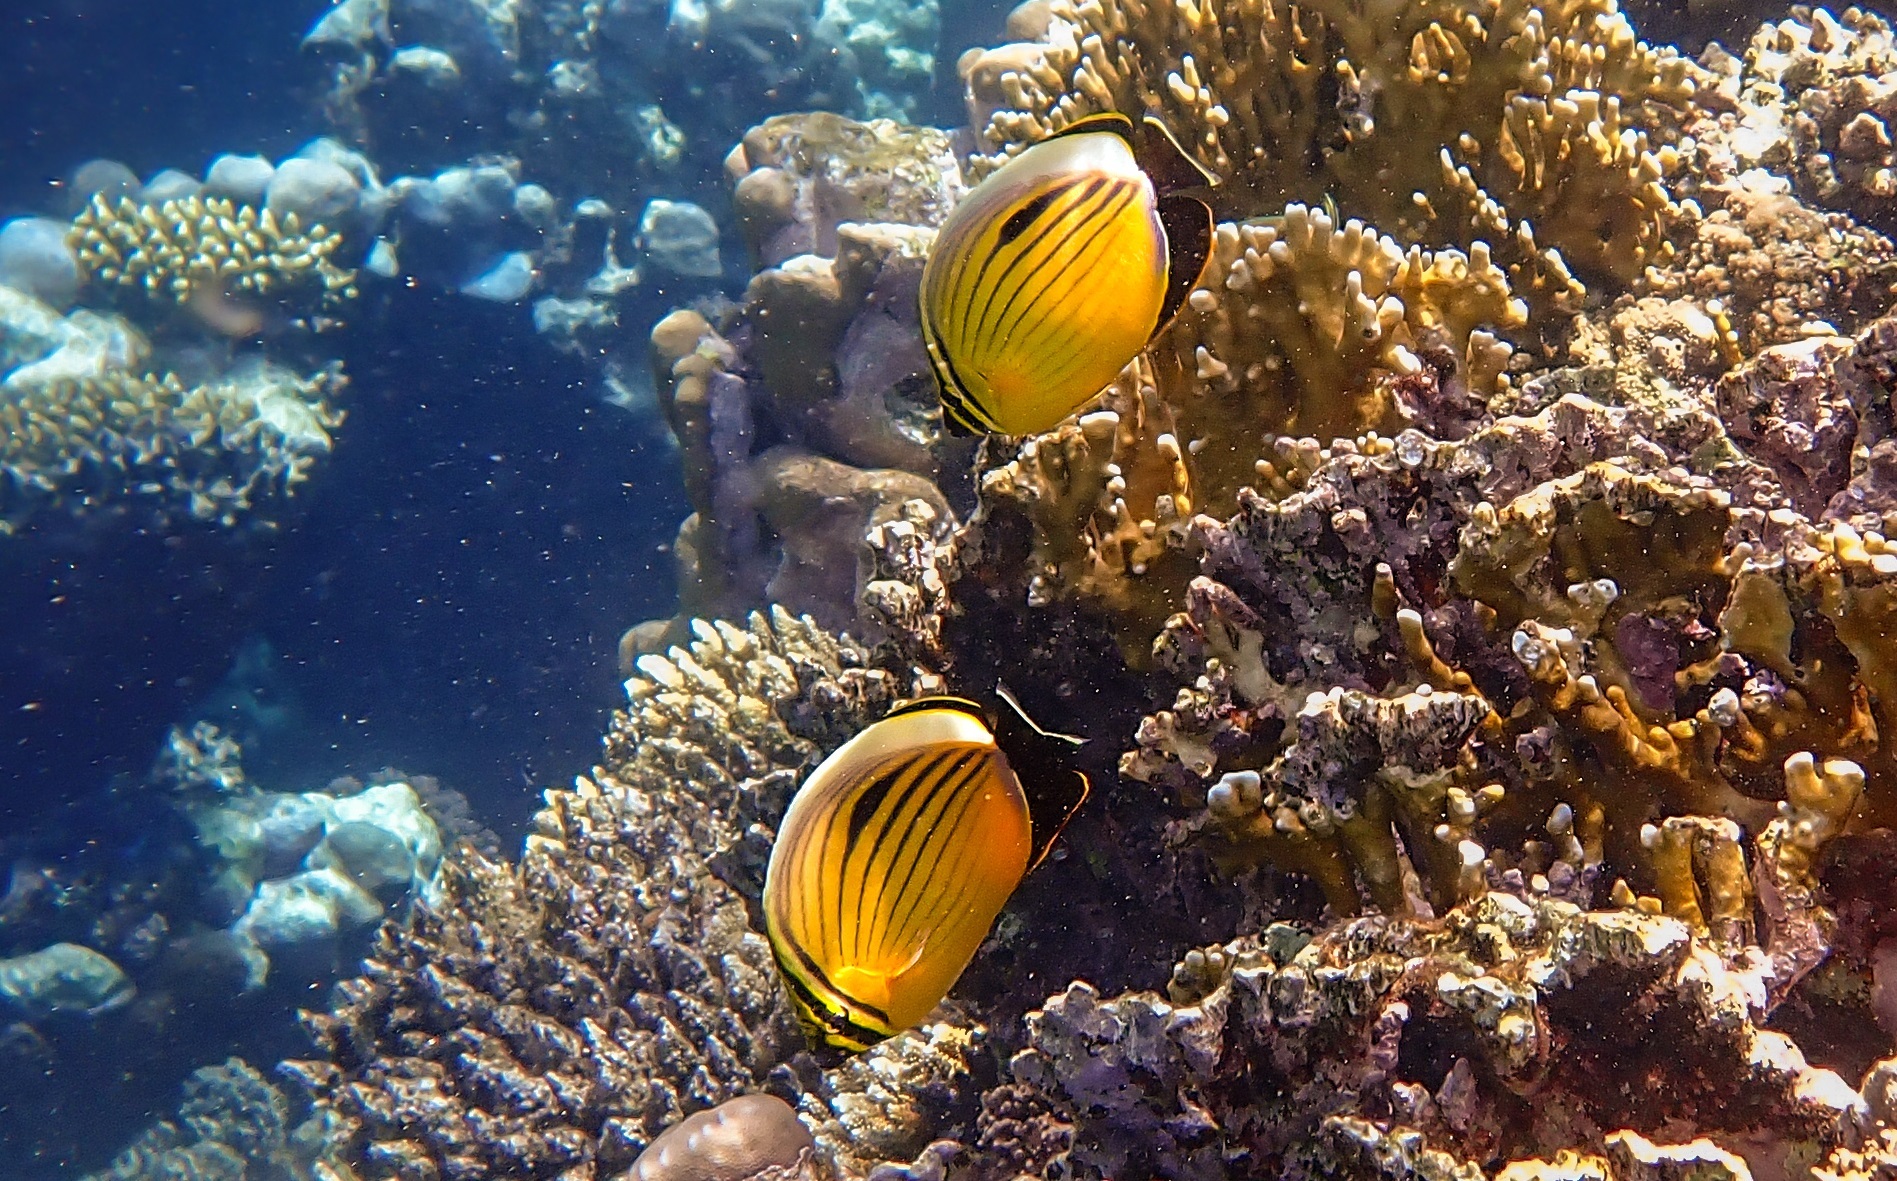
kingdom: Animalia
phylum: Chordata
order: Perciformes
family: Chaetodontidae
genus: Chaetodon
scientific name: Chaetodon austriacus
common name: Exquisite butterflyfish
